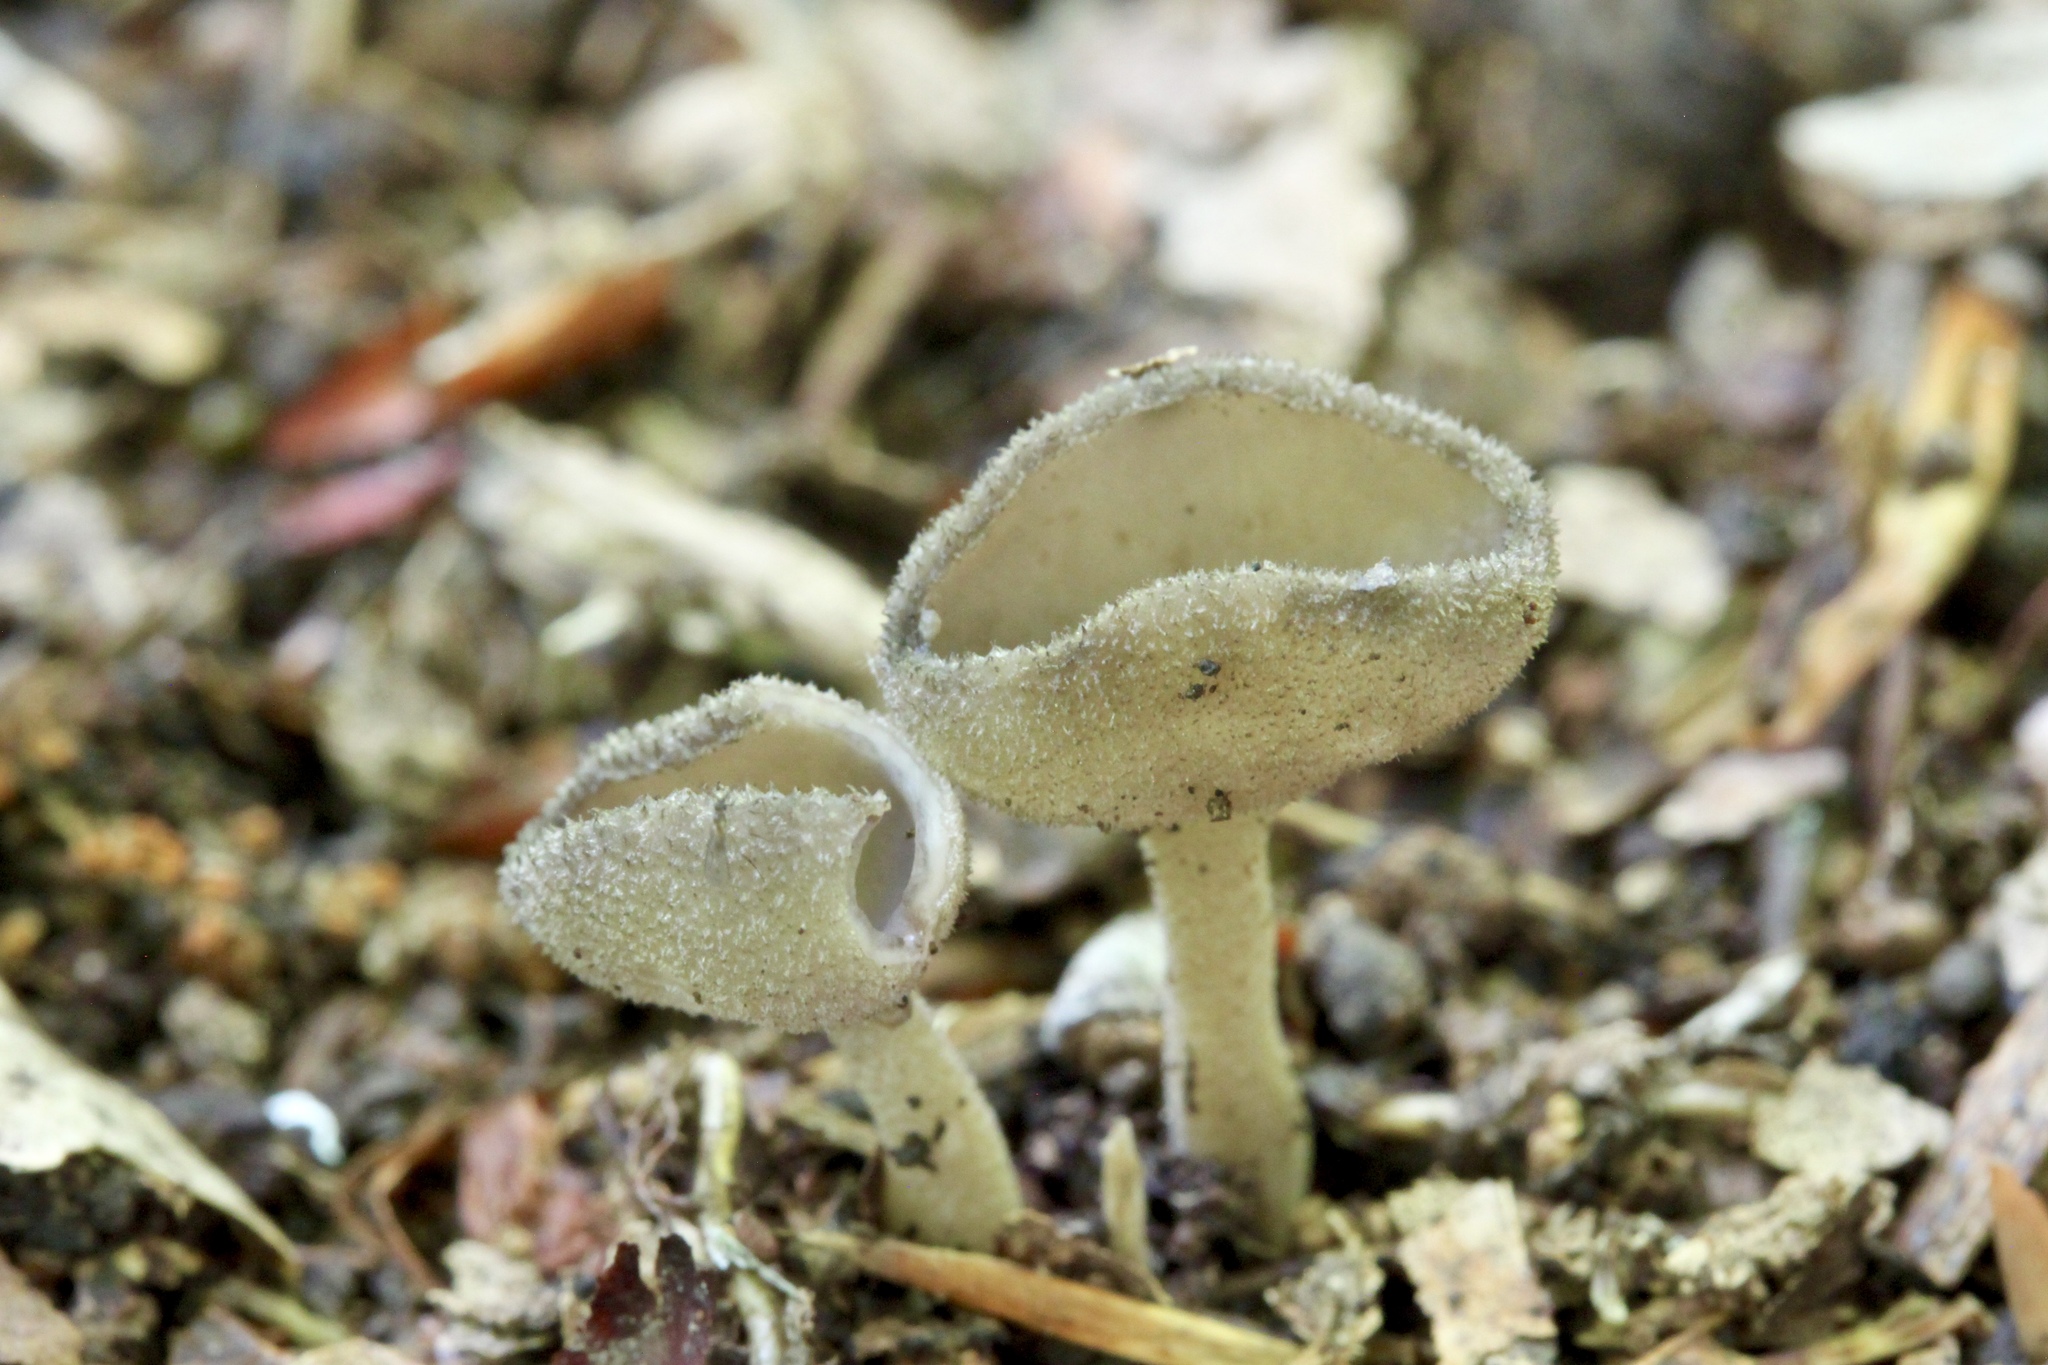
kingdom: Fungi
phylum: Ascomycota
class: Pezizomycetes
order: Pezizales
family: Helvellaceae
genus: Helvella
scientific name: Helvella macropus
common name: Felt saddle
